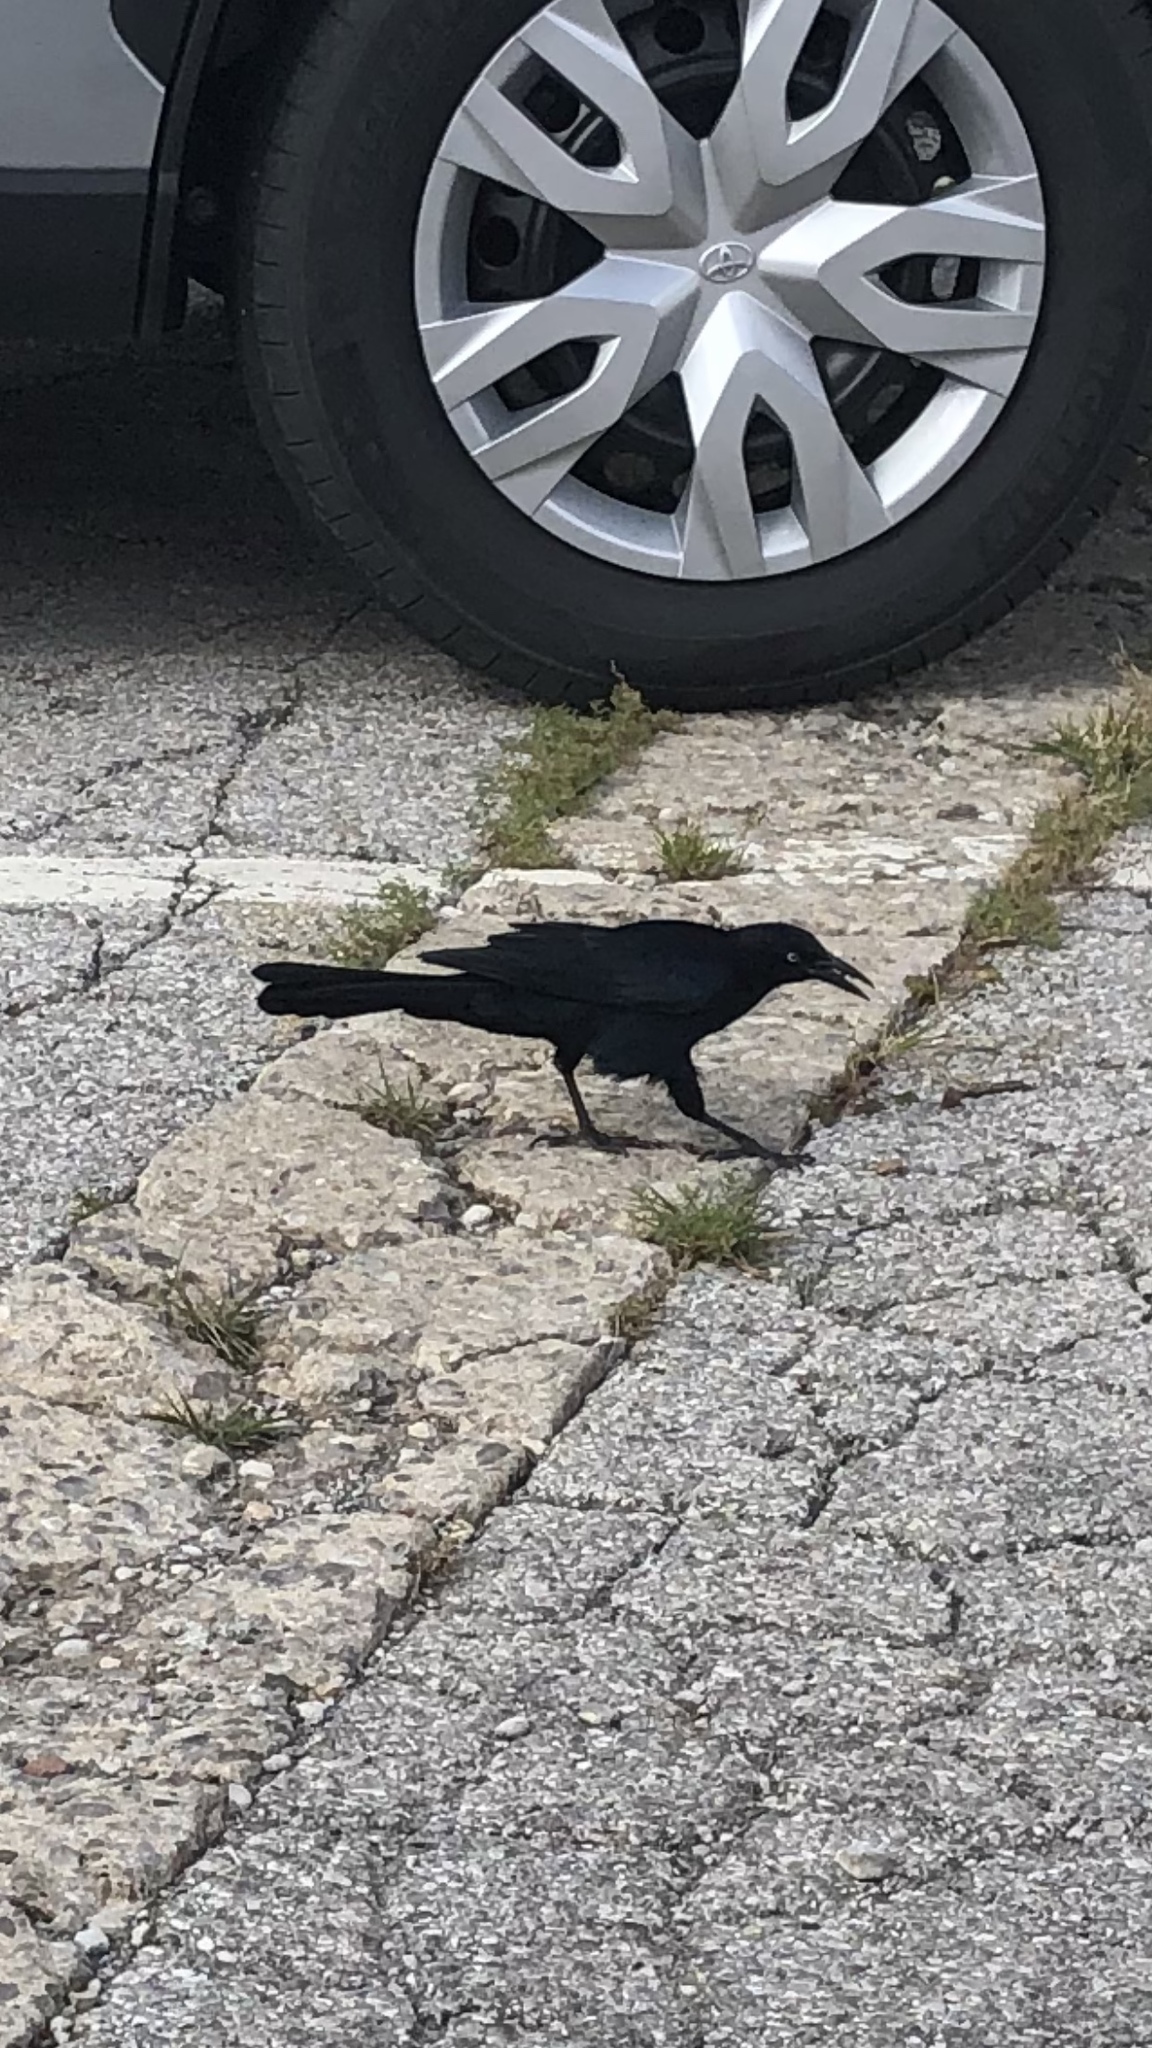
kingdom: Animalia
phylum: Chordata
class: Aves
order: Passeriformes
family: Icteridae
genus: Quiscalus
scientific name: Quiscalus mexicanus
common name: Great-tailed grackle
